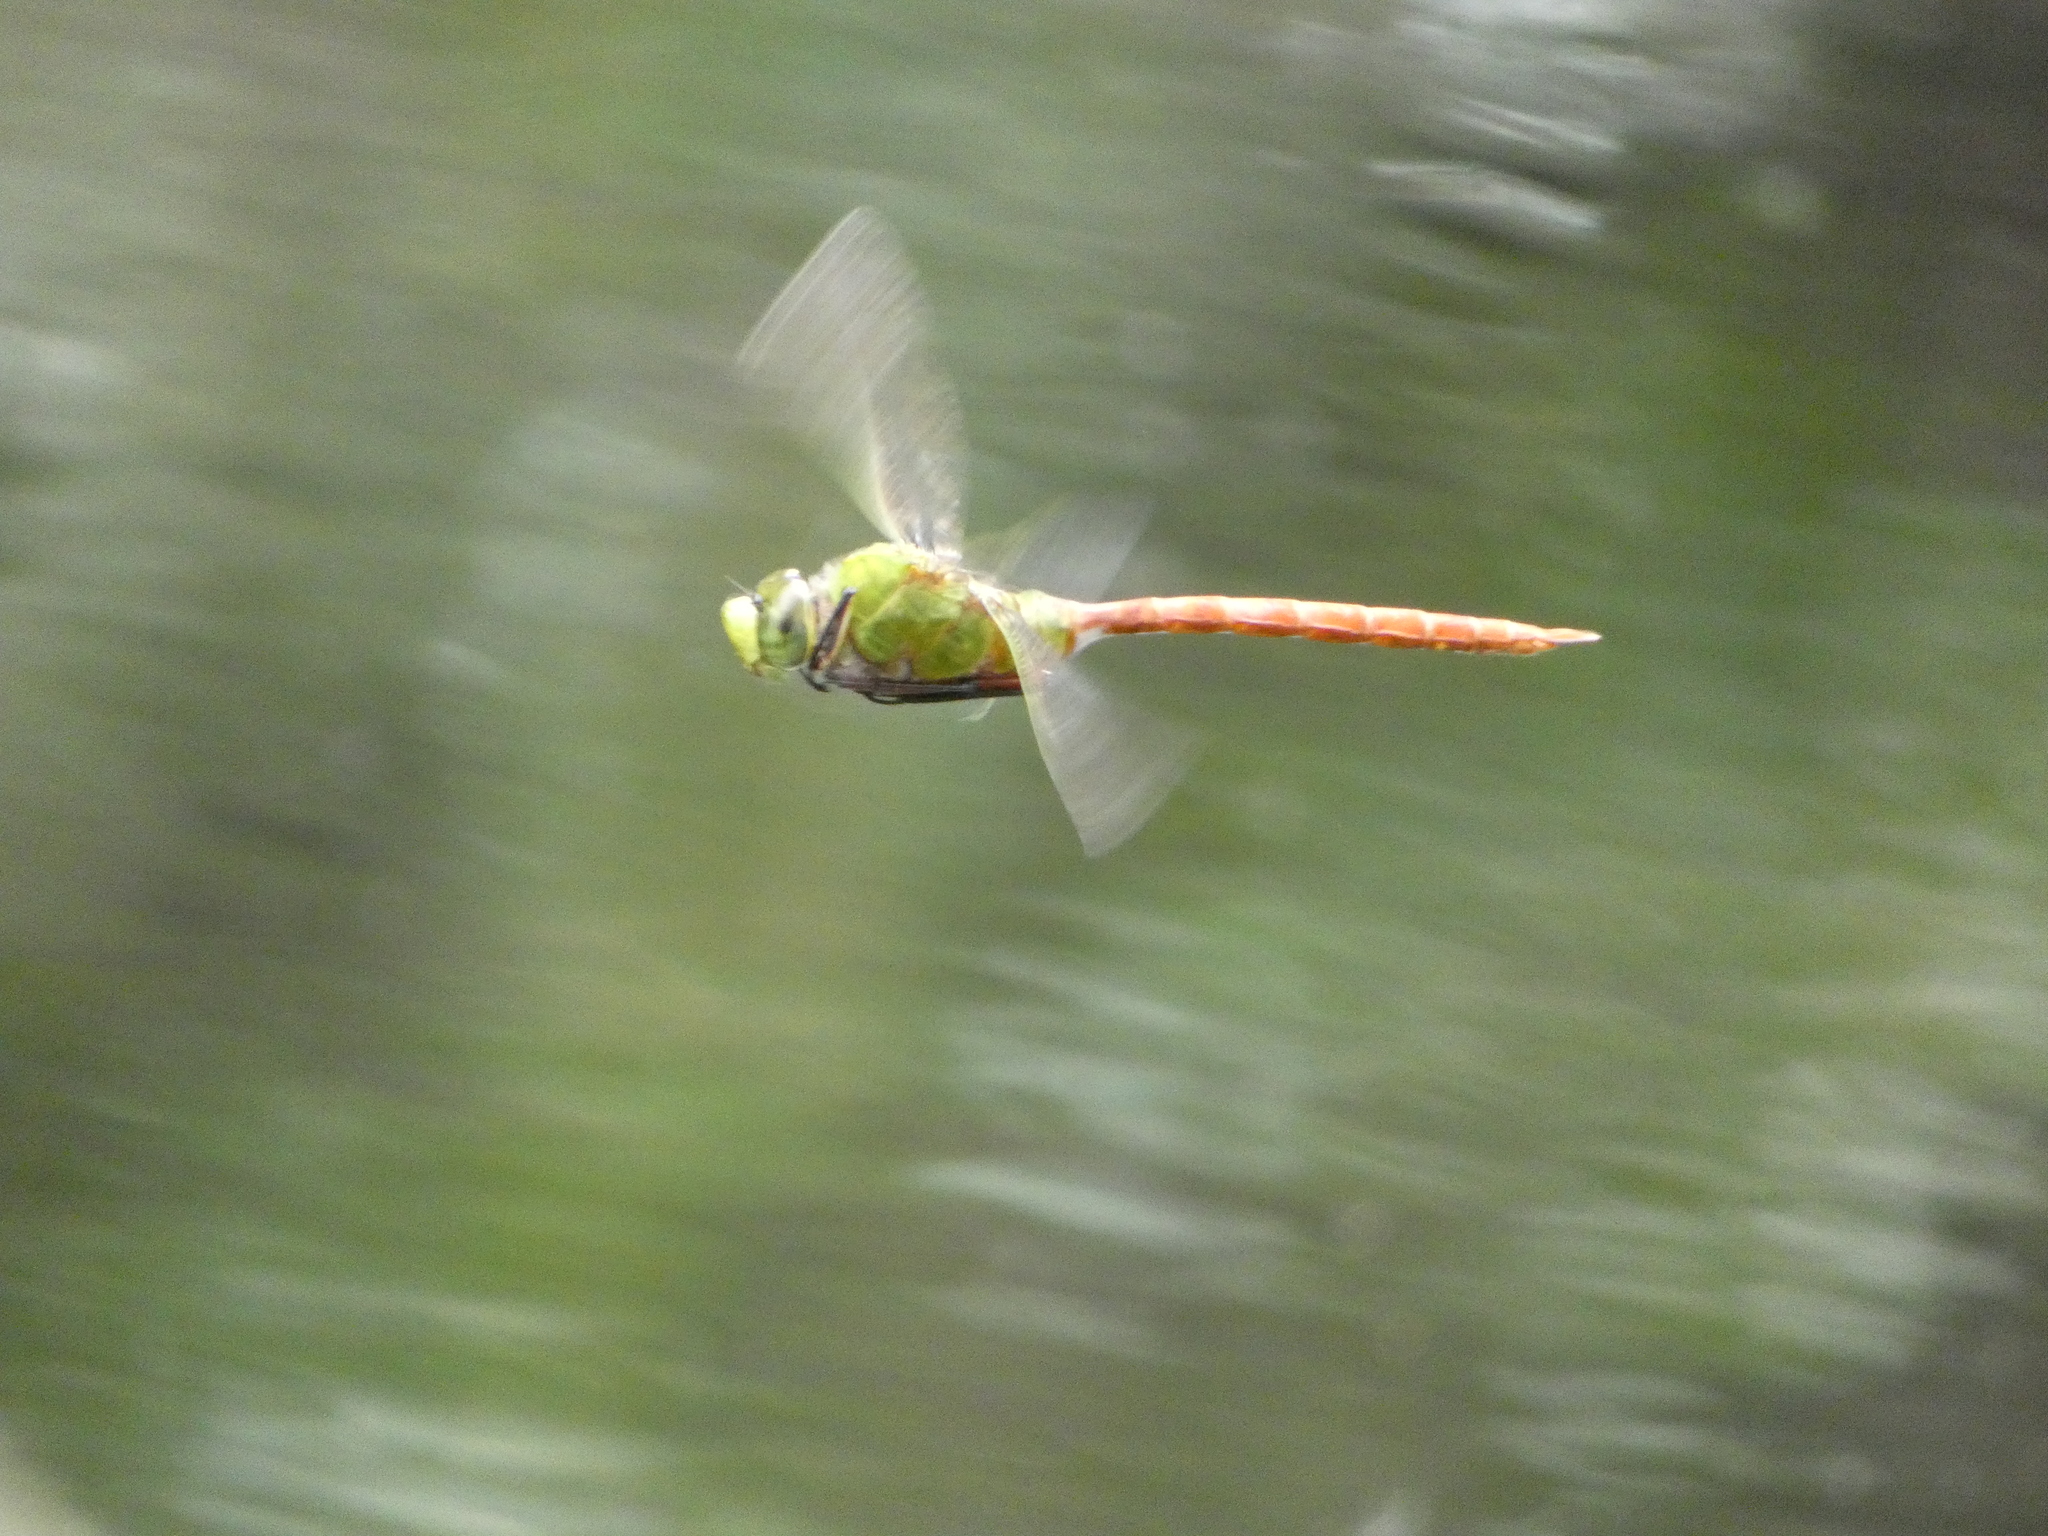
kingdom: Animalia
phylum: Arthropoda
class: Insecta
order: Odonata
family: Aeshnidae
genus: Anax
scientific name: Anax longipes
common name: Comet darner
